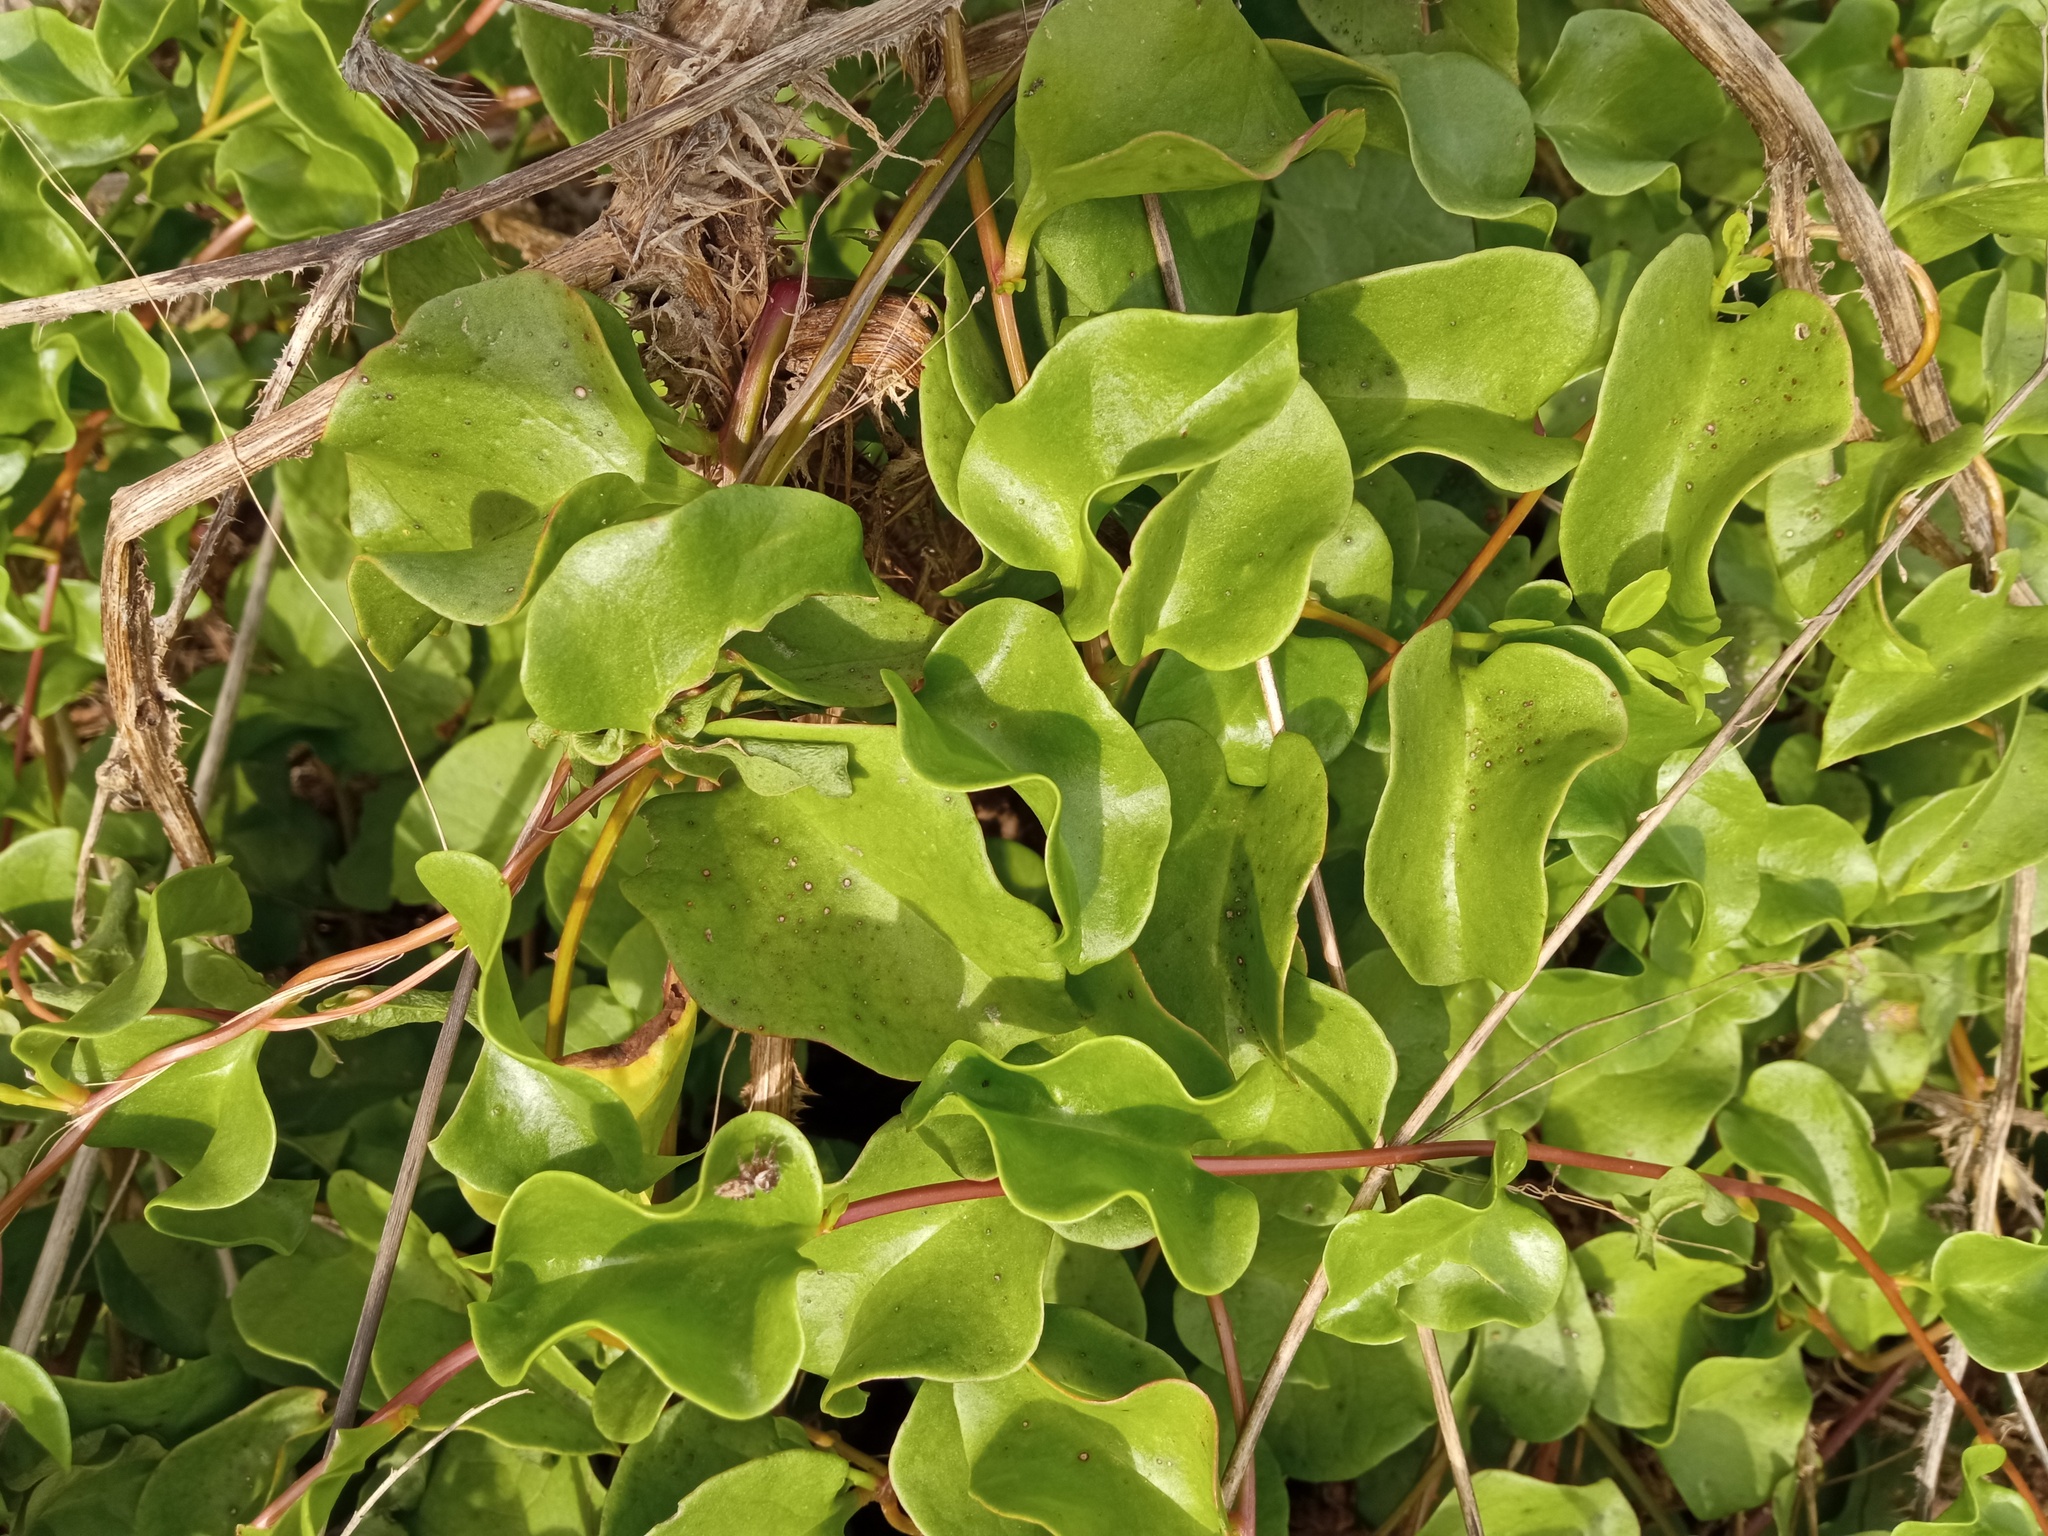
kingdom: Plantae
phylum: Tracheophyta
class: Magnoliopsida
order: Caryophyllales
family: Basellaceae
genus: Anredera
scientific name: Anredera cordifolia
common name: Heartleaf madeiravine
